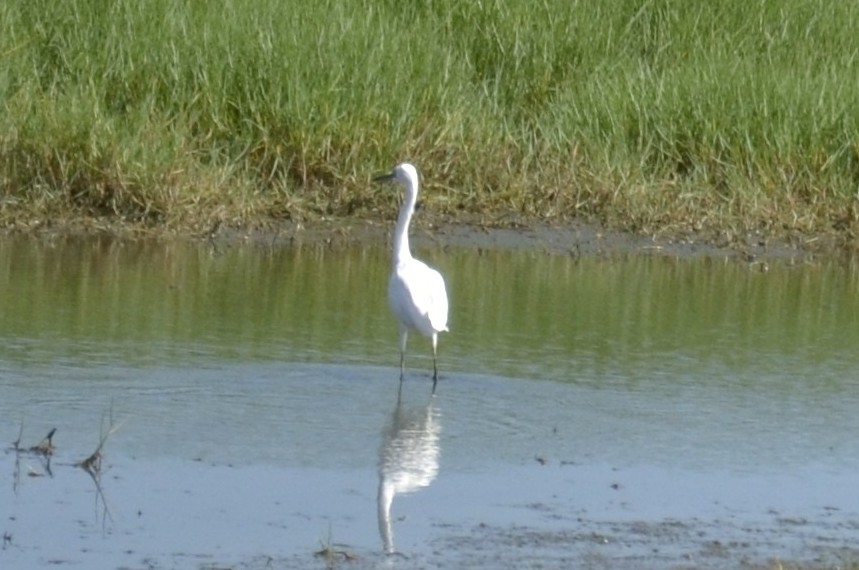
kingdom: Animalia
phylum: Chordata
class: Aves
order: Pelecaniformes
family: Ardeidae
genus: Egretta
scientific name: Egretta garzetta
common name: Little egret
